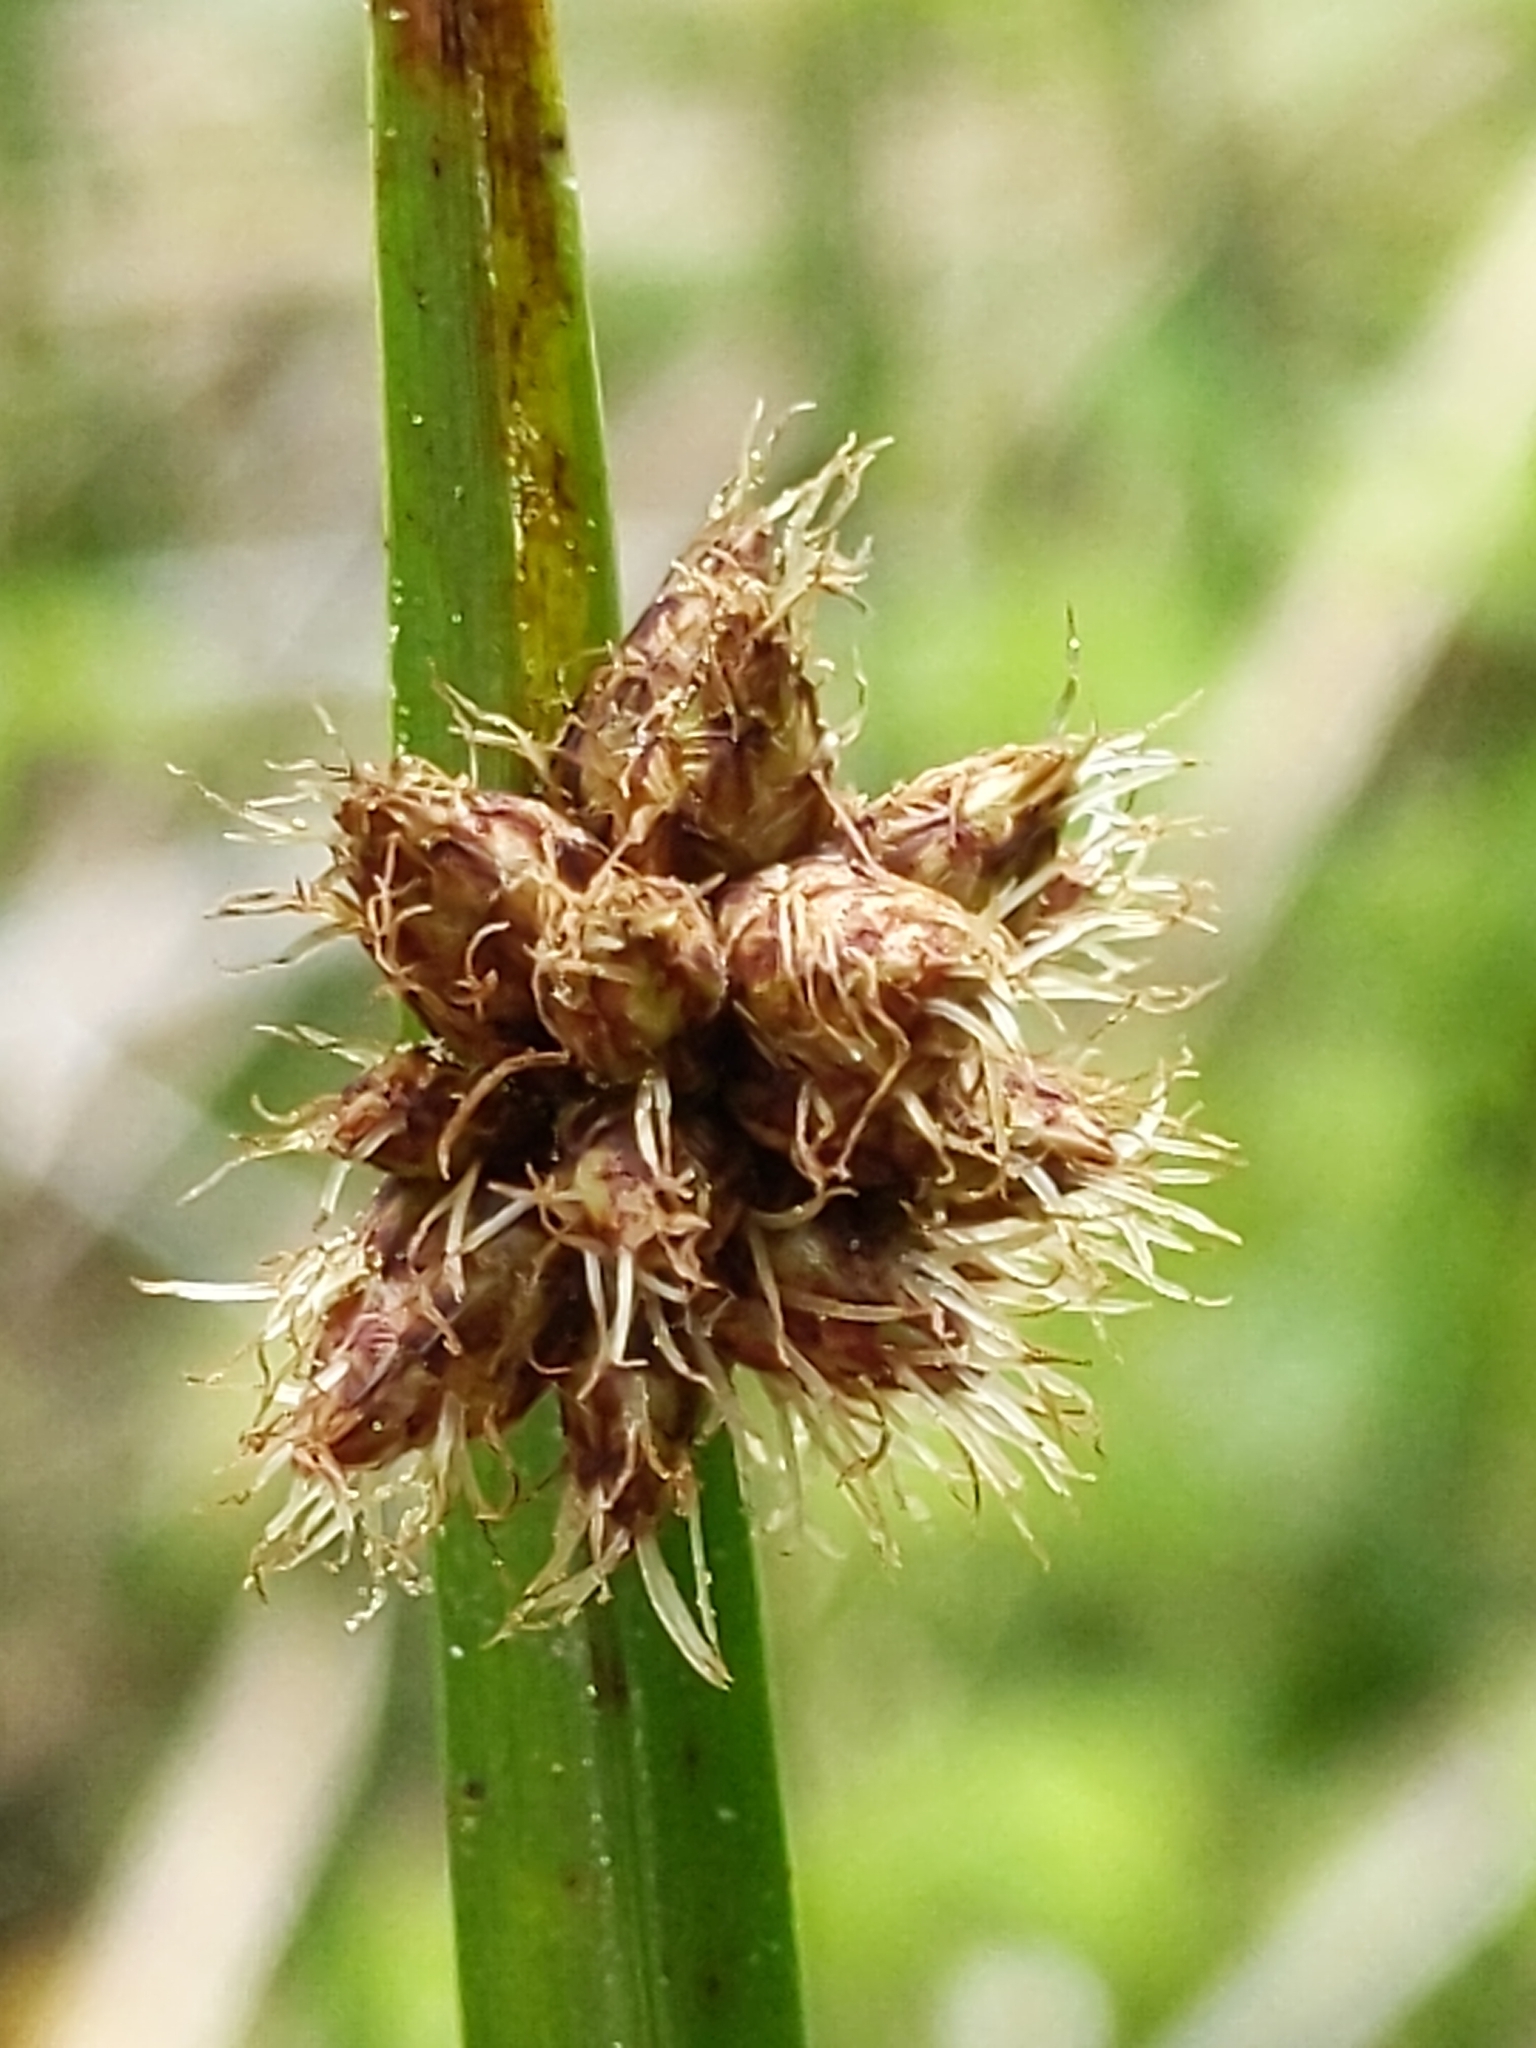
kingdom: Plantae
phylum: Tracheophyta
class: Liliopsida
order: Poales
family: Cyperaceae
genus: Schoenoplectus
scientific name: Schoenoplectus americanus
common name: American three-square bulrush
